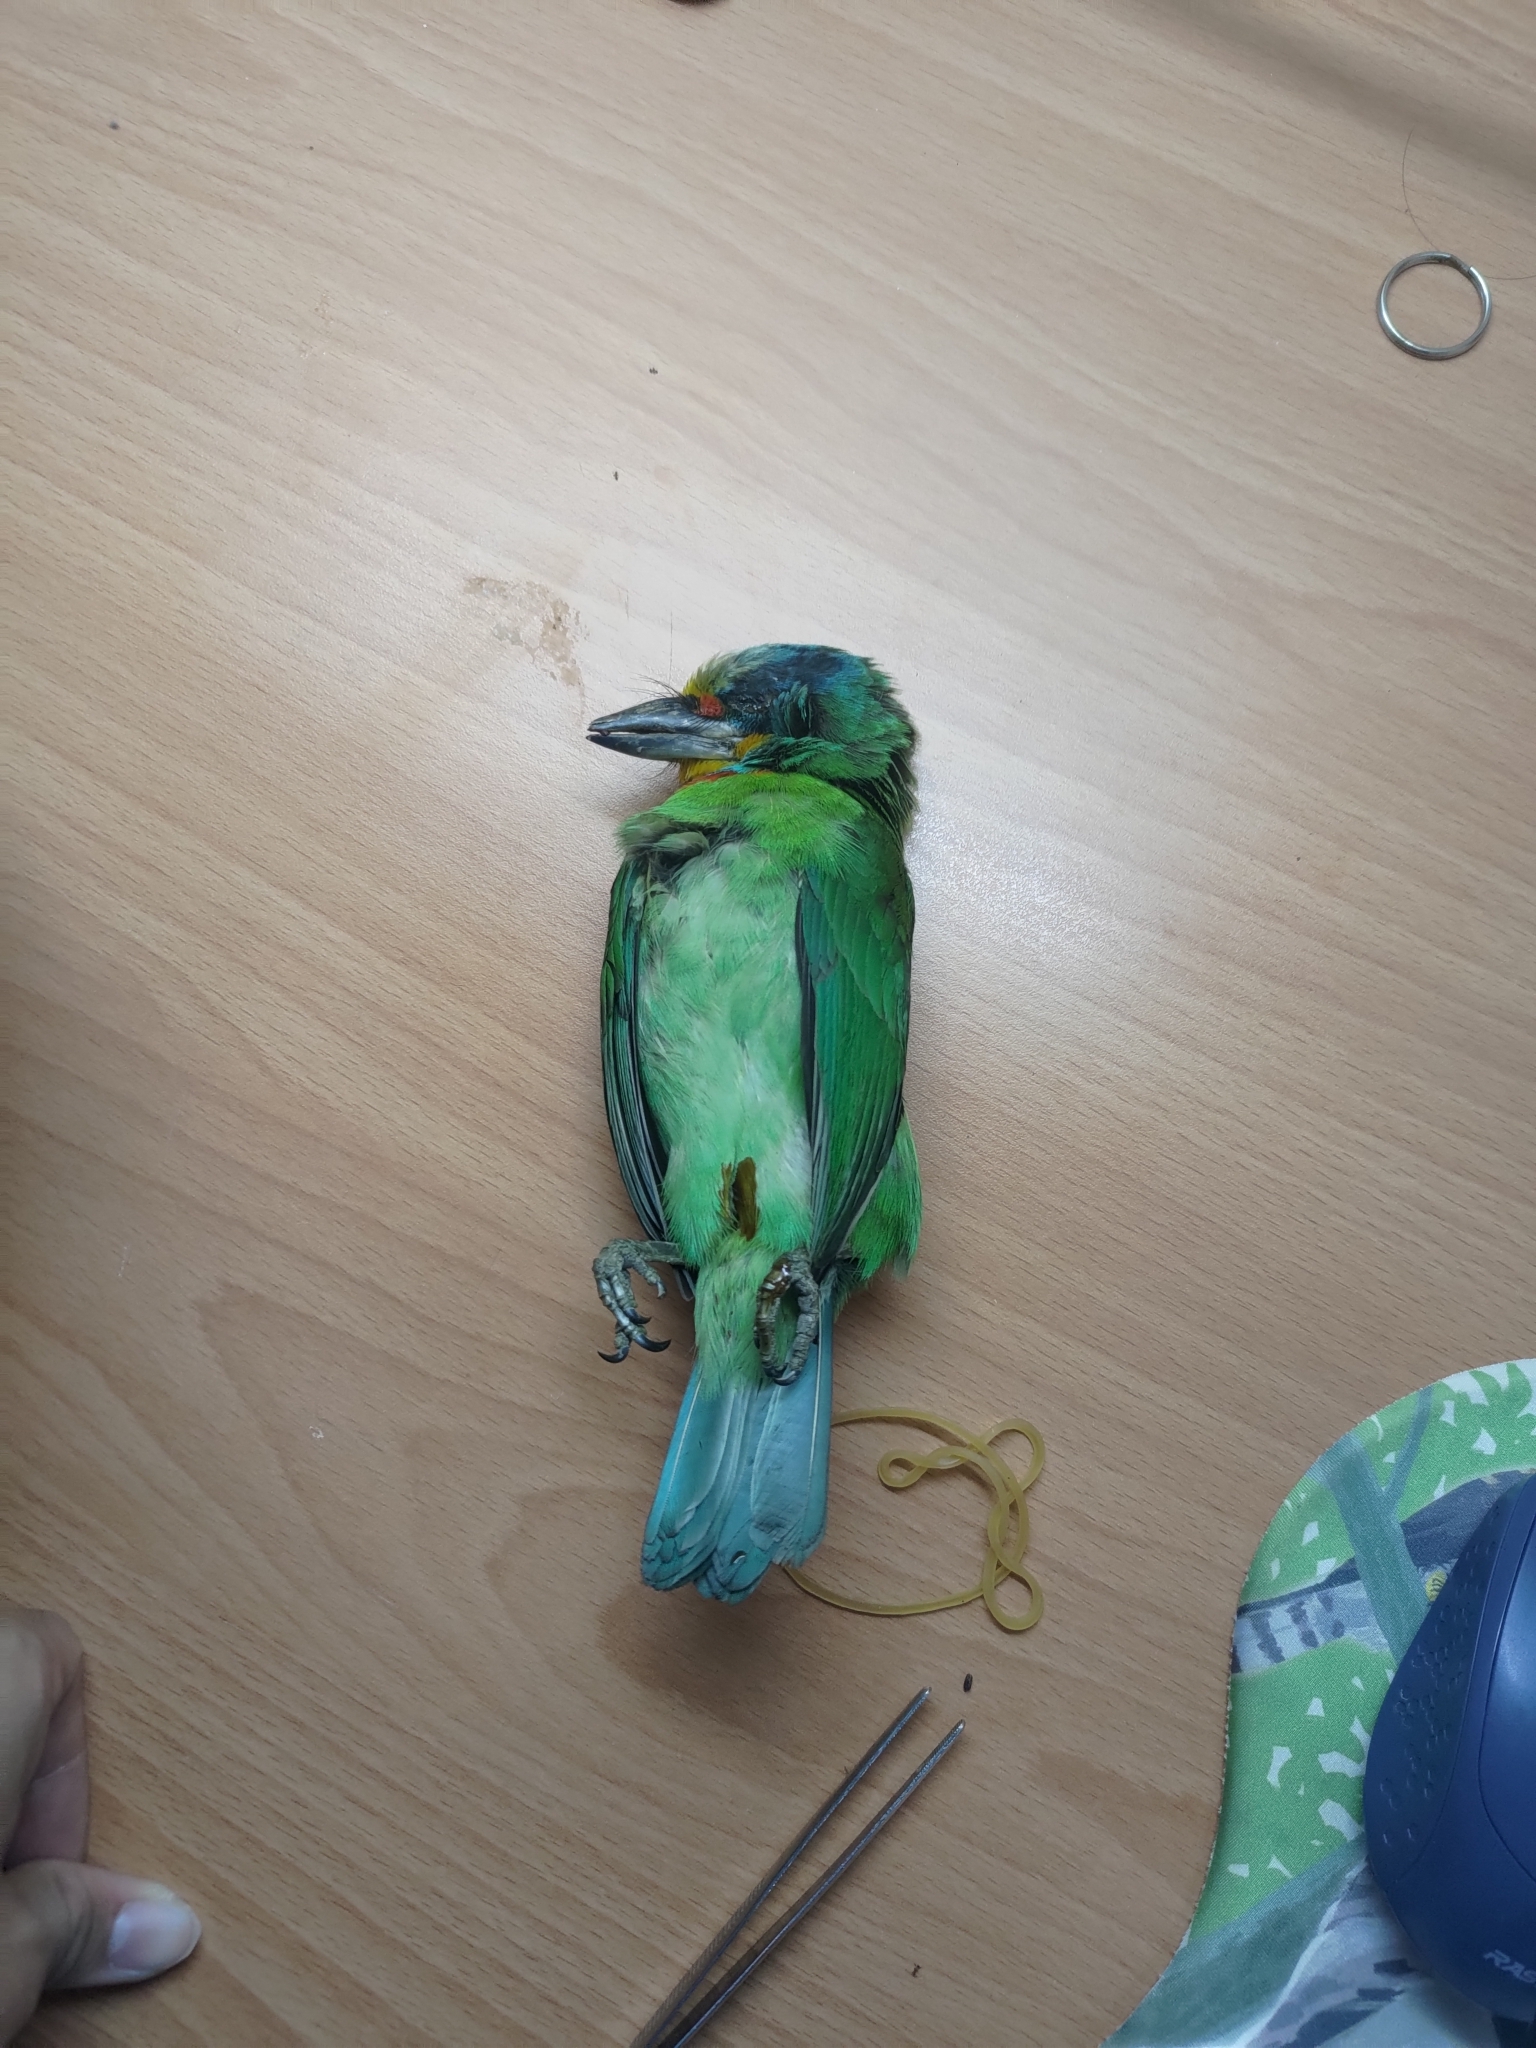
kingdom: Animalia
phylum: Chordata
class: Aves
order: Piciformes
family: Megalaimidae
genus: Psilopogon
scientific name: Psilopogon nuchalis
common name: Taiwan barbet
